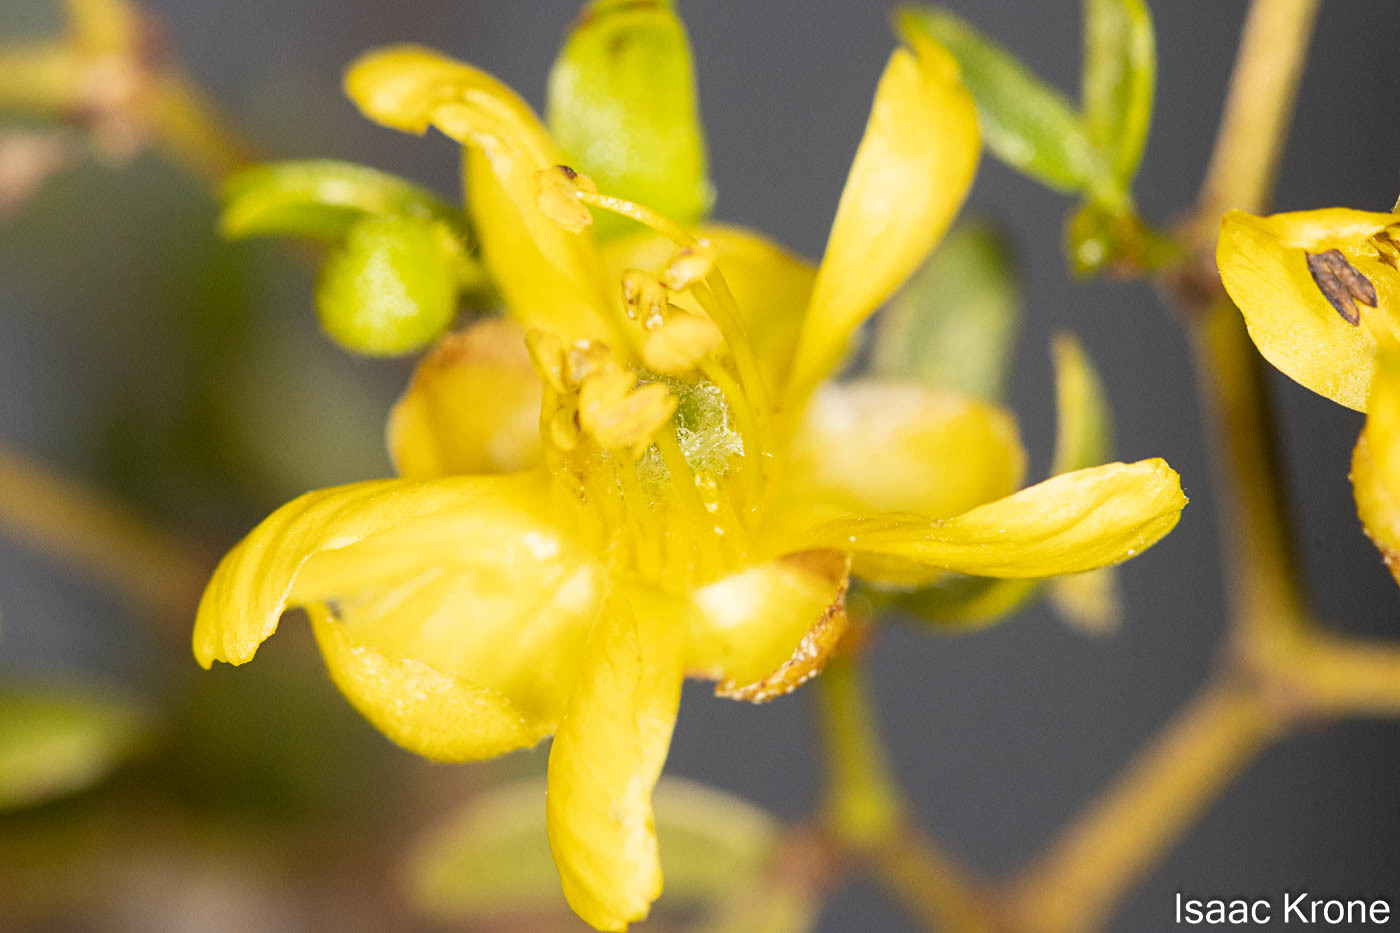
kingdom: Plantae
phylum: Tracheophyta
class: Magnoliopsida
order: Zygophyllales
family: Zygophyllaceae
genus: Larrea
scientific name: Larrea tridentata
